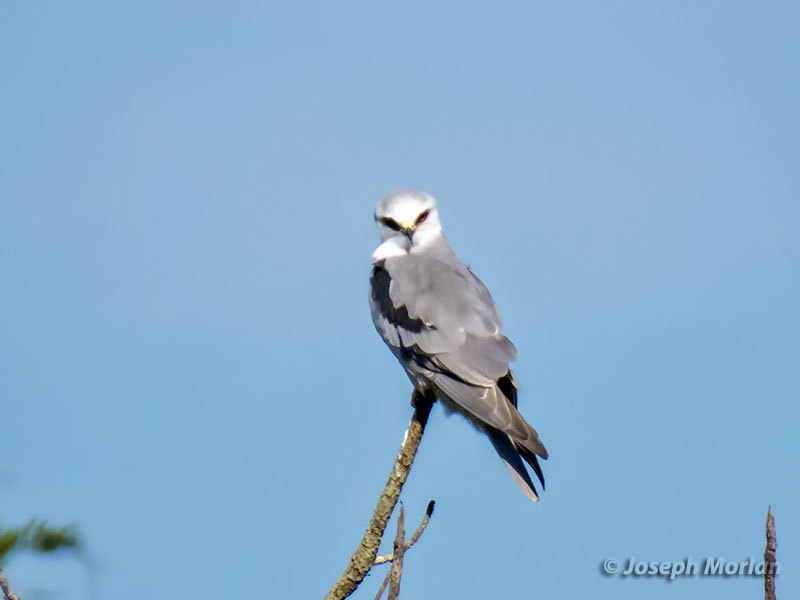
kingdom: Animalia
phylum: Chordata
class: Aves
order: Accipitriformes
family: Accipitridae
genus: Elanus
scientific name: Elanus leucurus
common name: White-tailed kite
